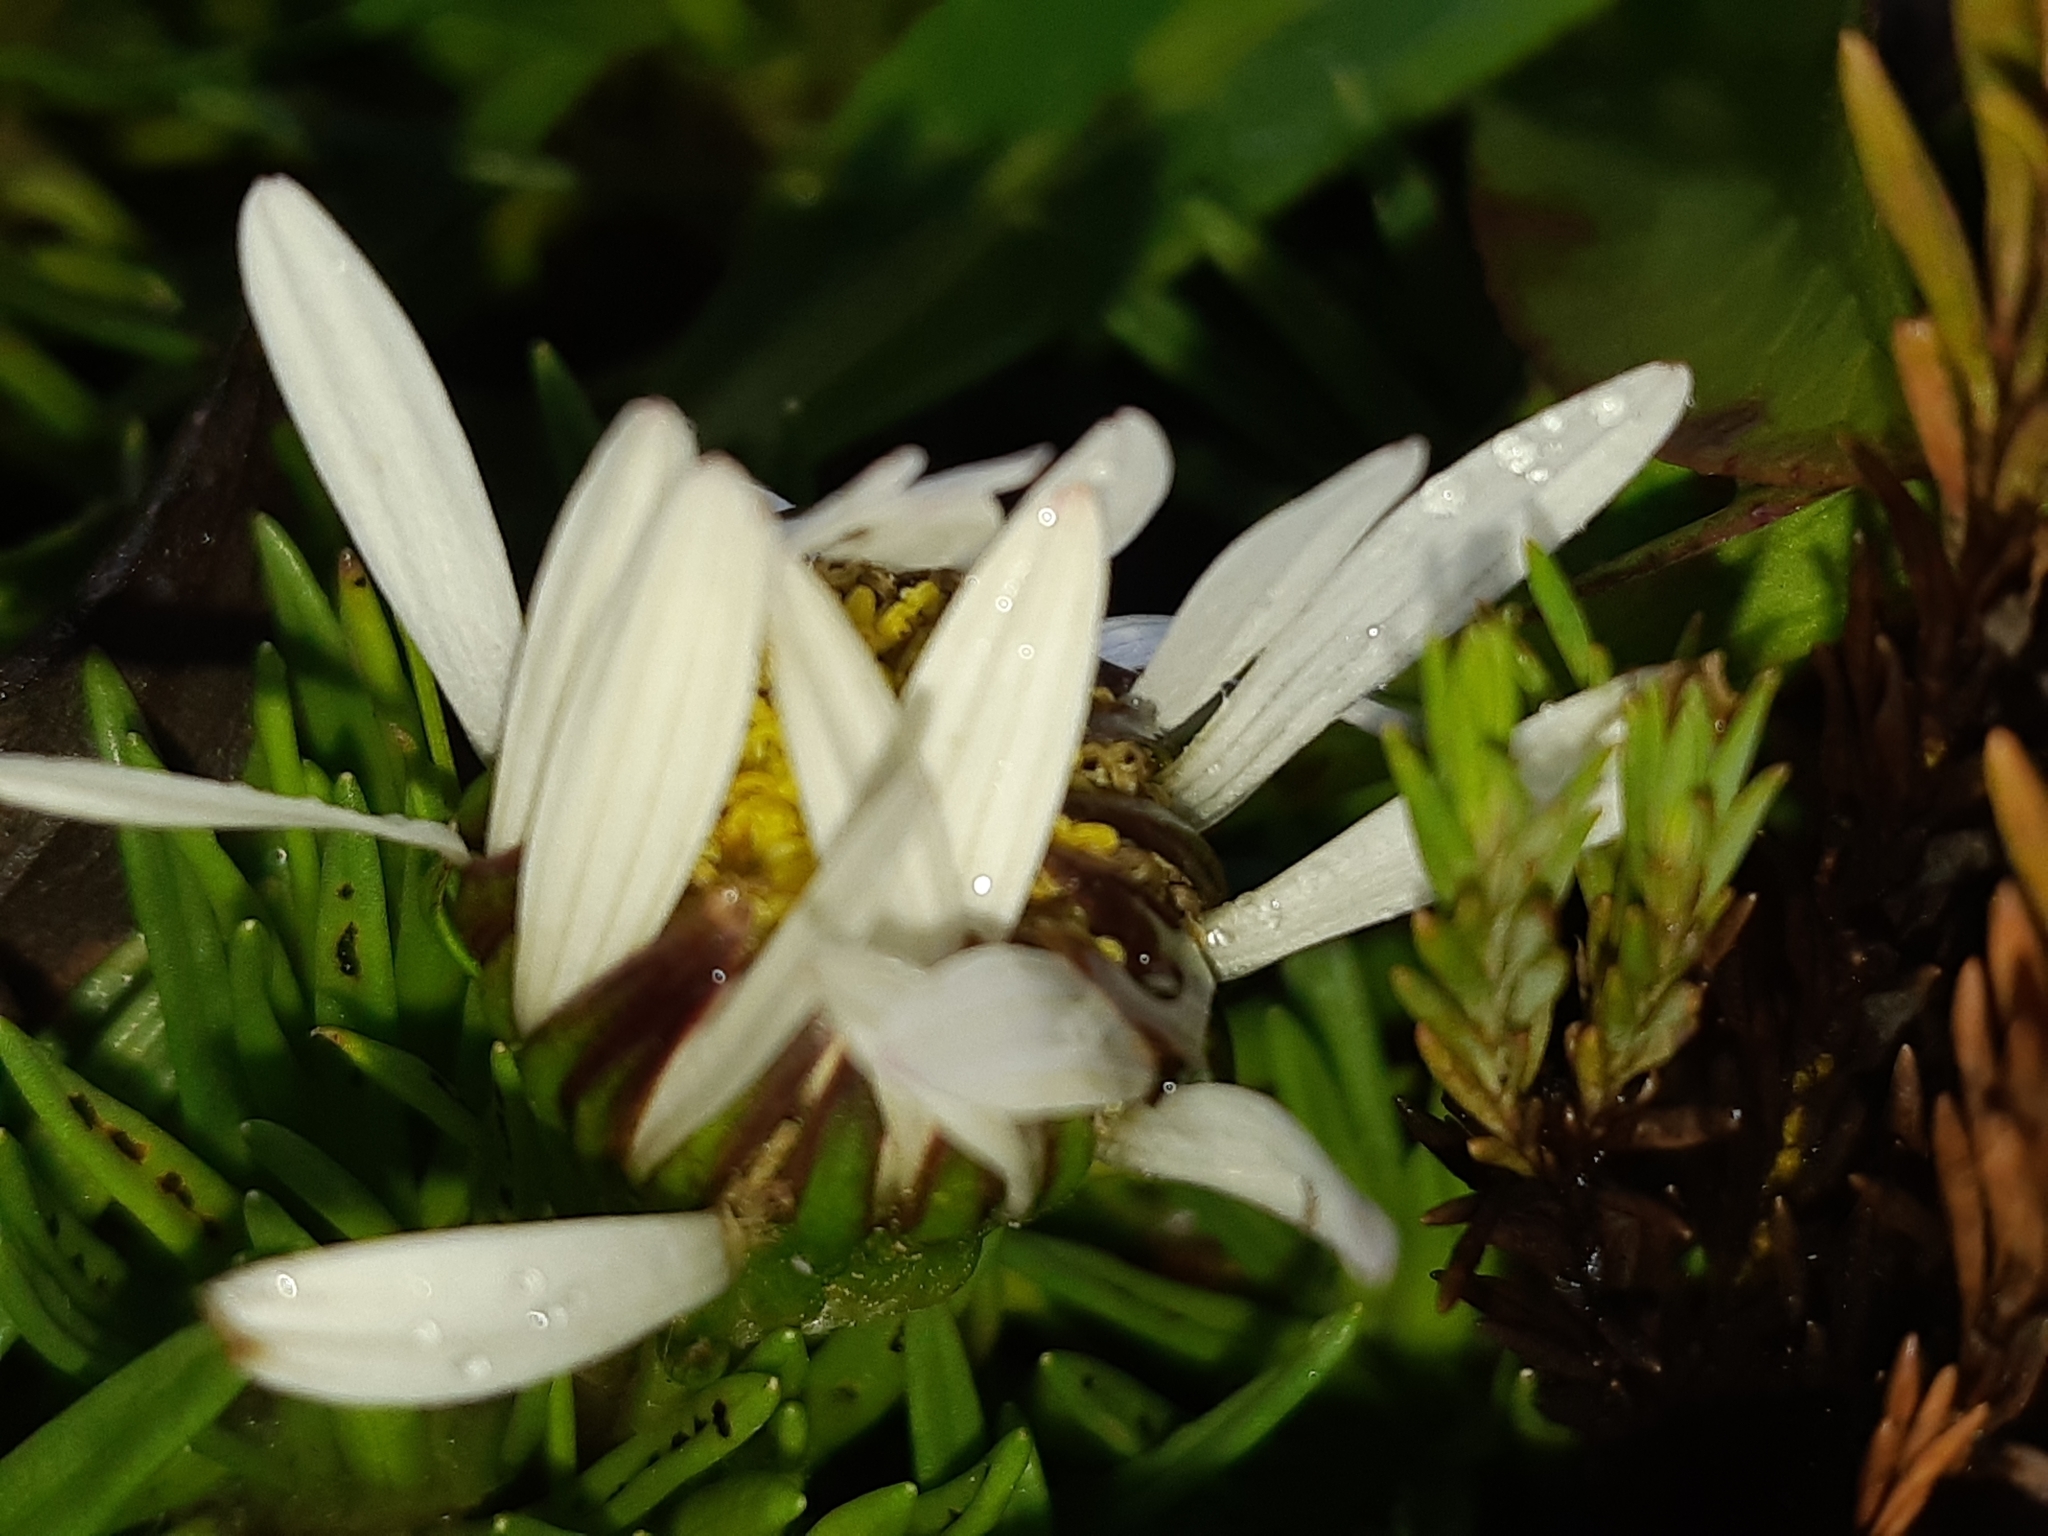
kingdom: Plantae
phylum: Tracheophyta
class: Magnoliopsida
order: Asterales
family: Asteraceae
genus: Werneria
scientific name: Werneria crassa
